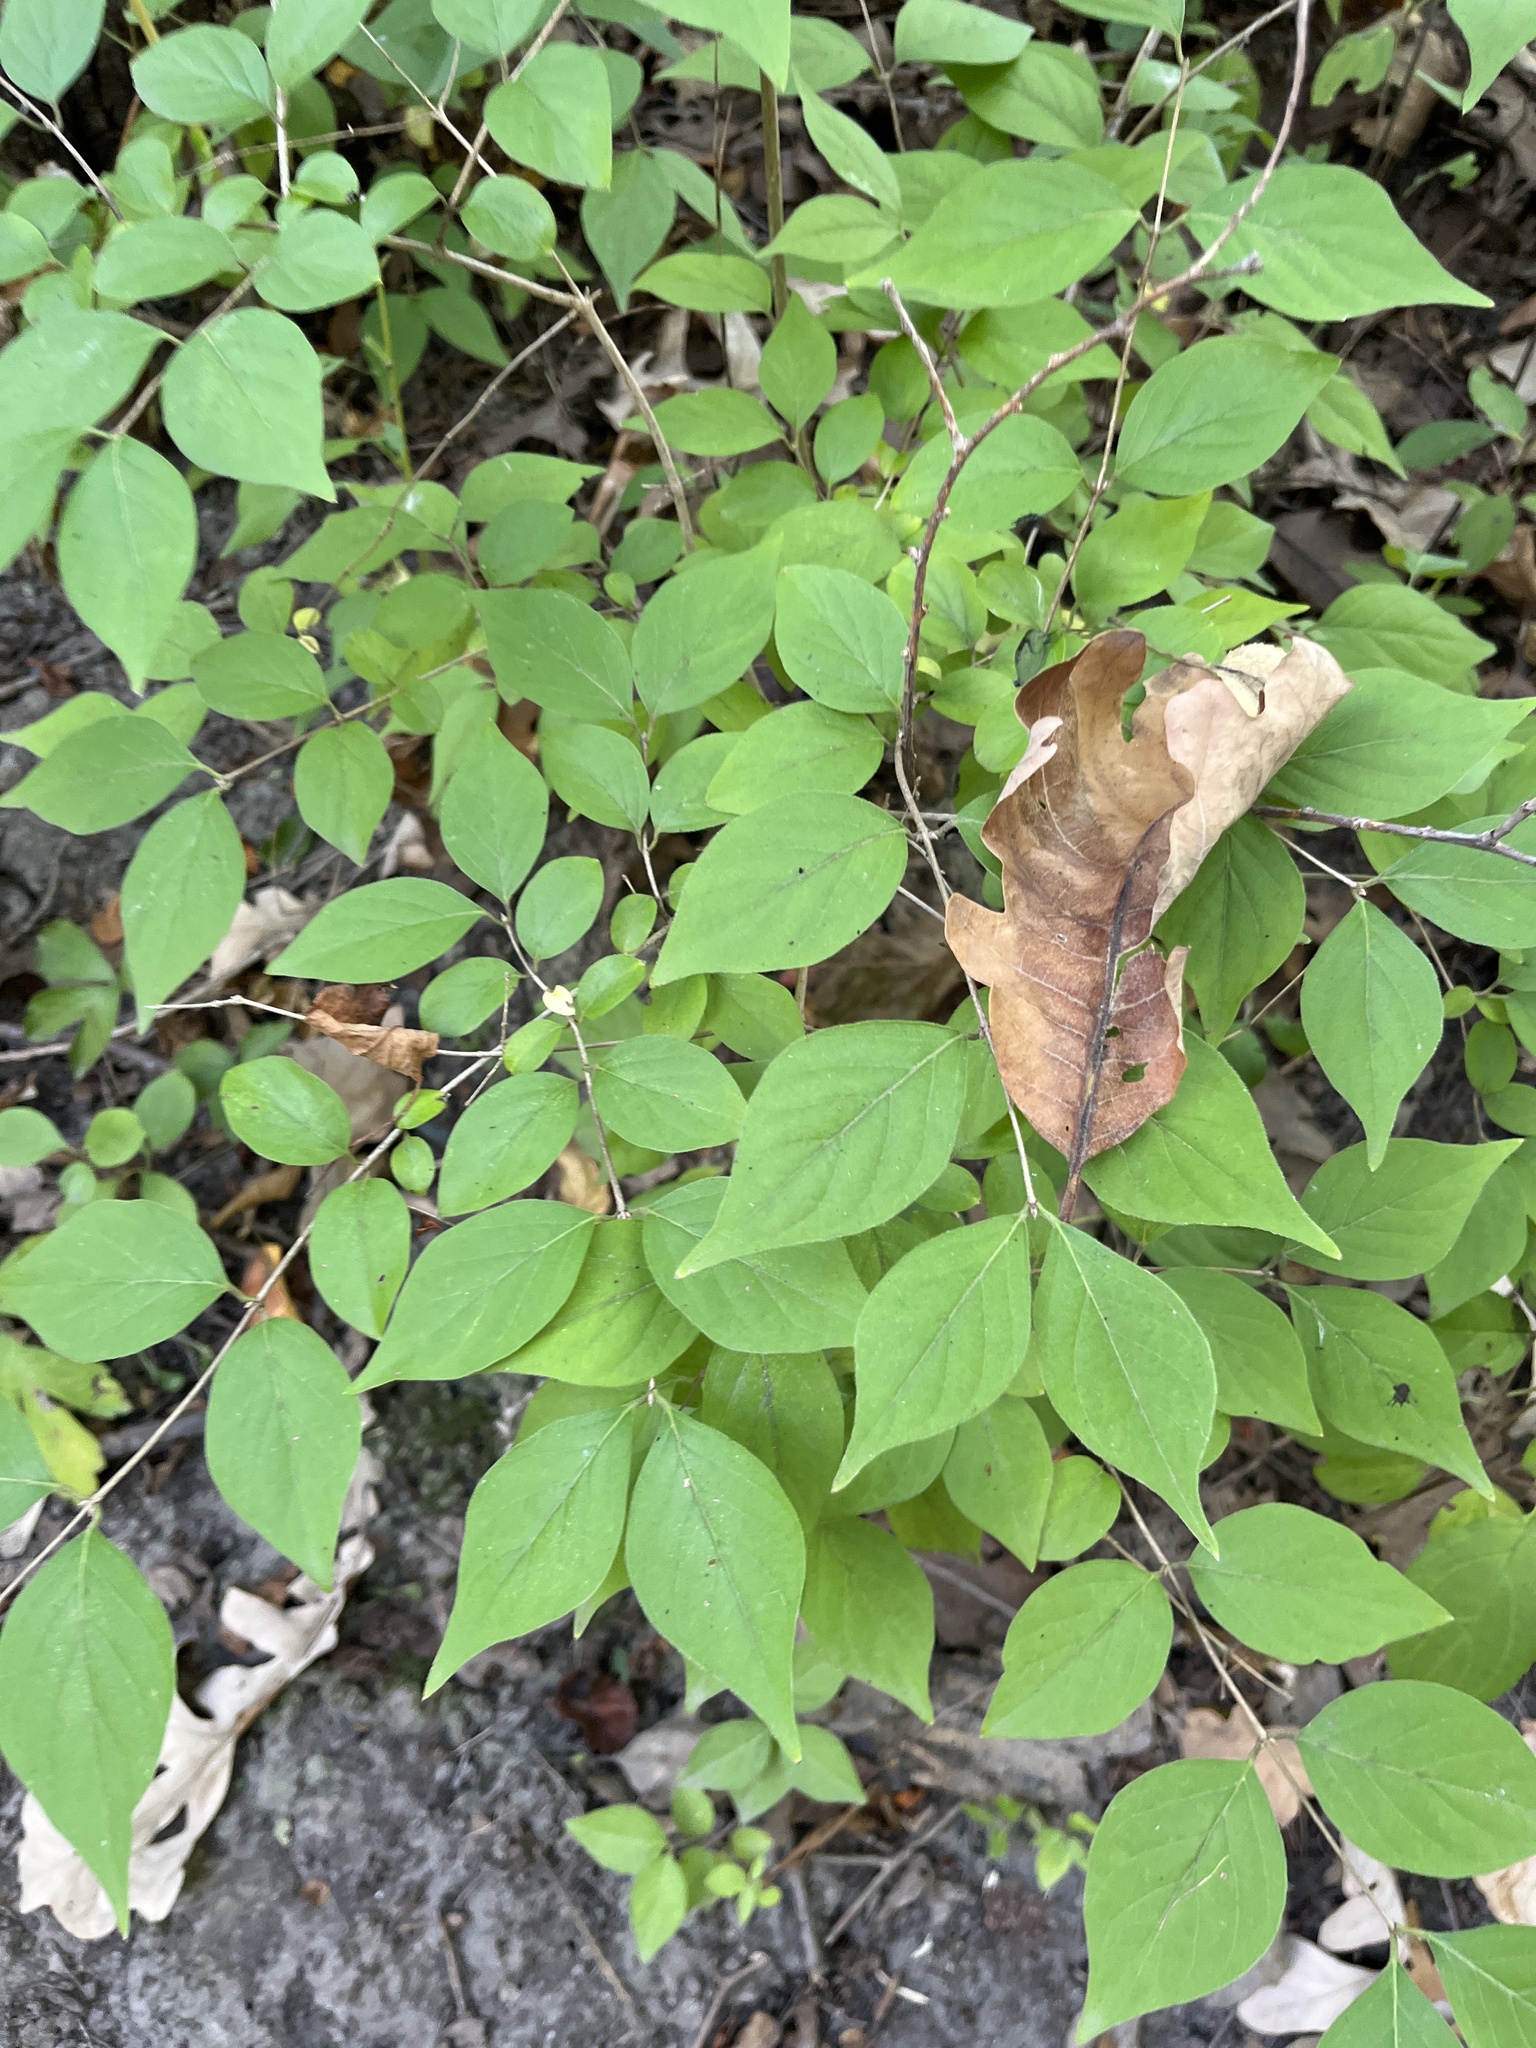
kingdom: Plantae
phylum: Tracheophyta
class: Magnoliopsida
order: Dipsacales
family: Caprifoliaceae
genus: Lonicera
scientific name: Lonicera maackii
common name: Amur honeysuckle
